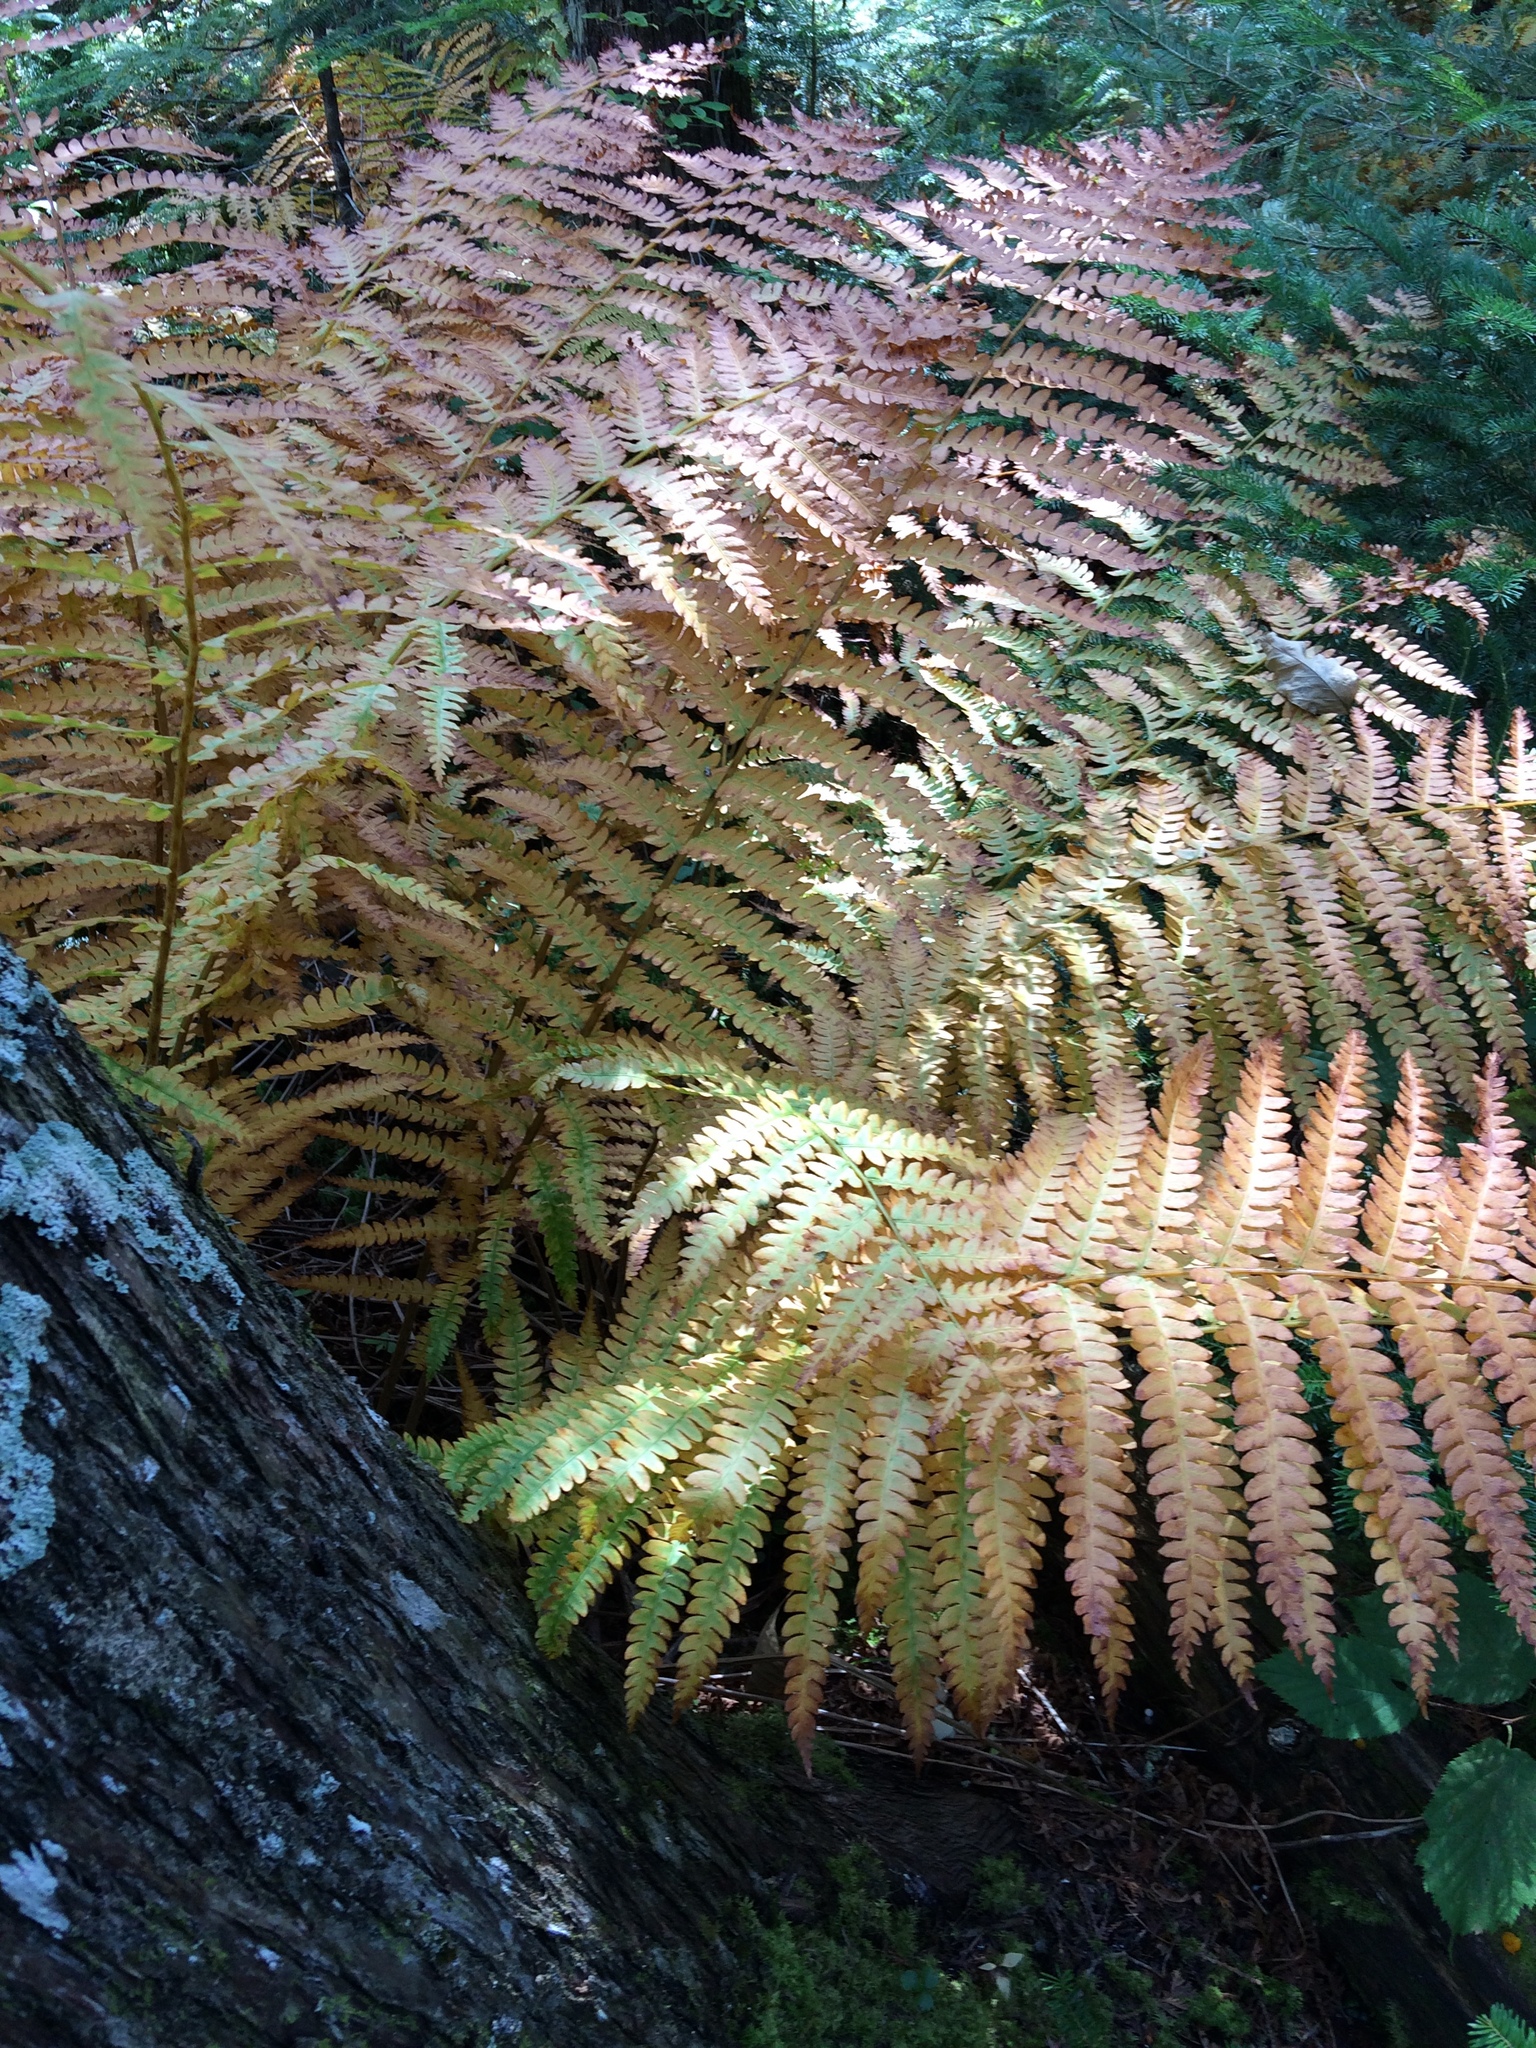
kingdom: Plantae
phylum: Tracheophyta
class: Polypodiopsida
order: Osmundales
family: Osmundaceae
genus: Osmundastrum
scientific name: Osmundastrum cinnamomeum
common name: Cinnamon fern
